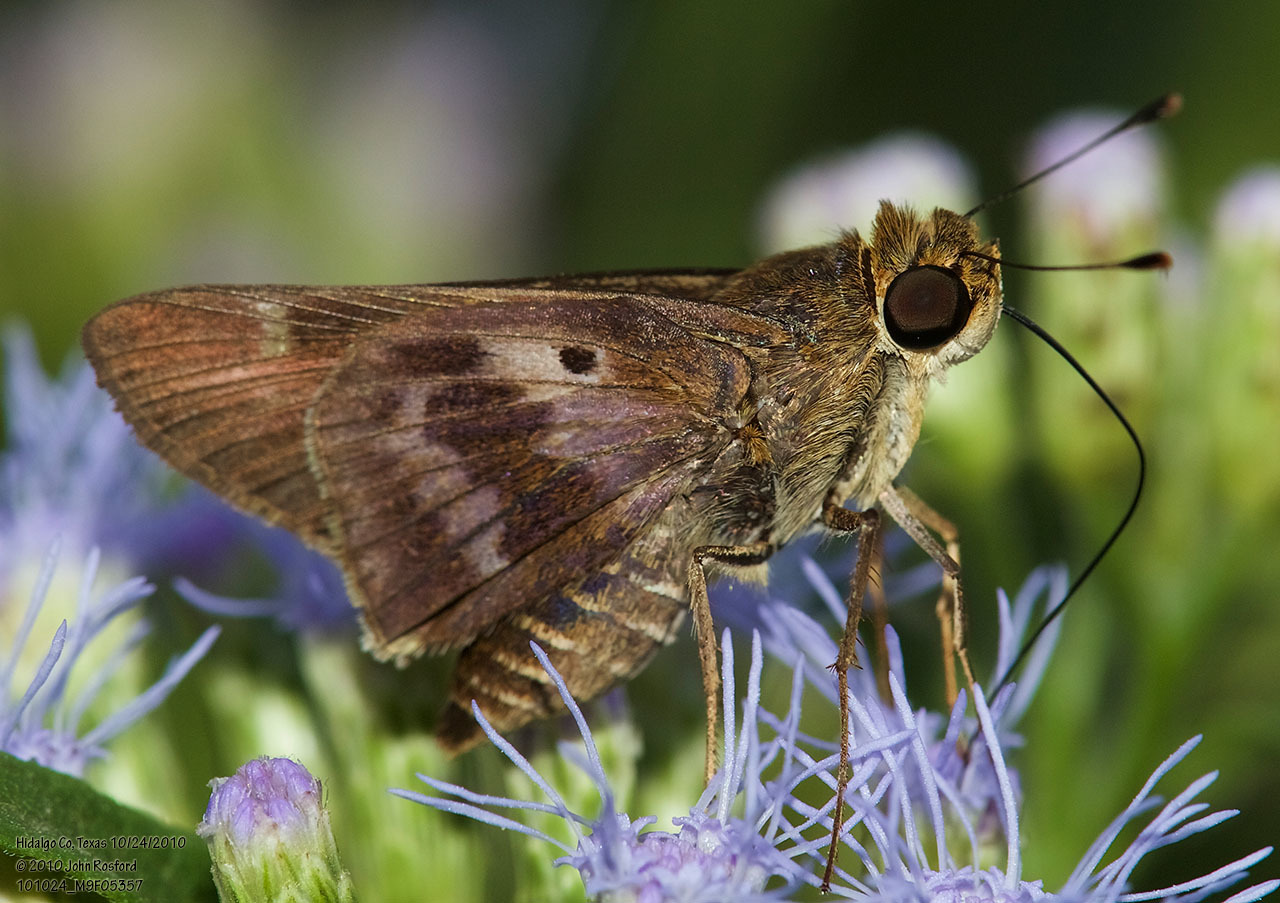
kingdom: Animalia
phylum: Arthropoda
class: Insecta
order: Lepidoptera
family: Hesperiidae
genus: Nyctelius
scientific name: Nyctelius nyctelius
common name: Violet-banded skipper
